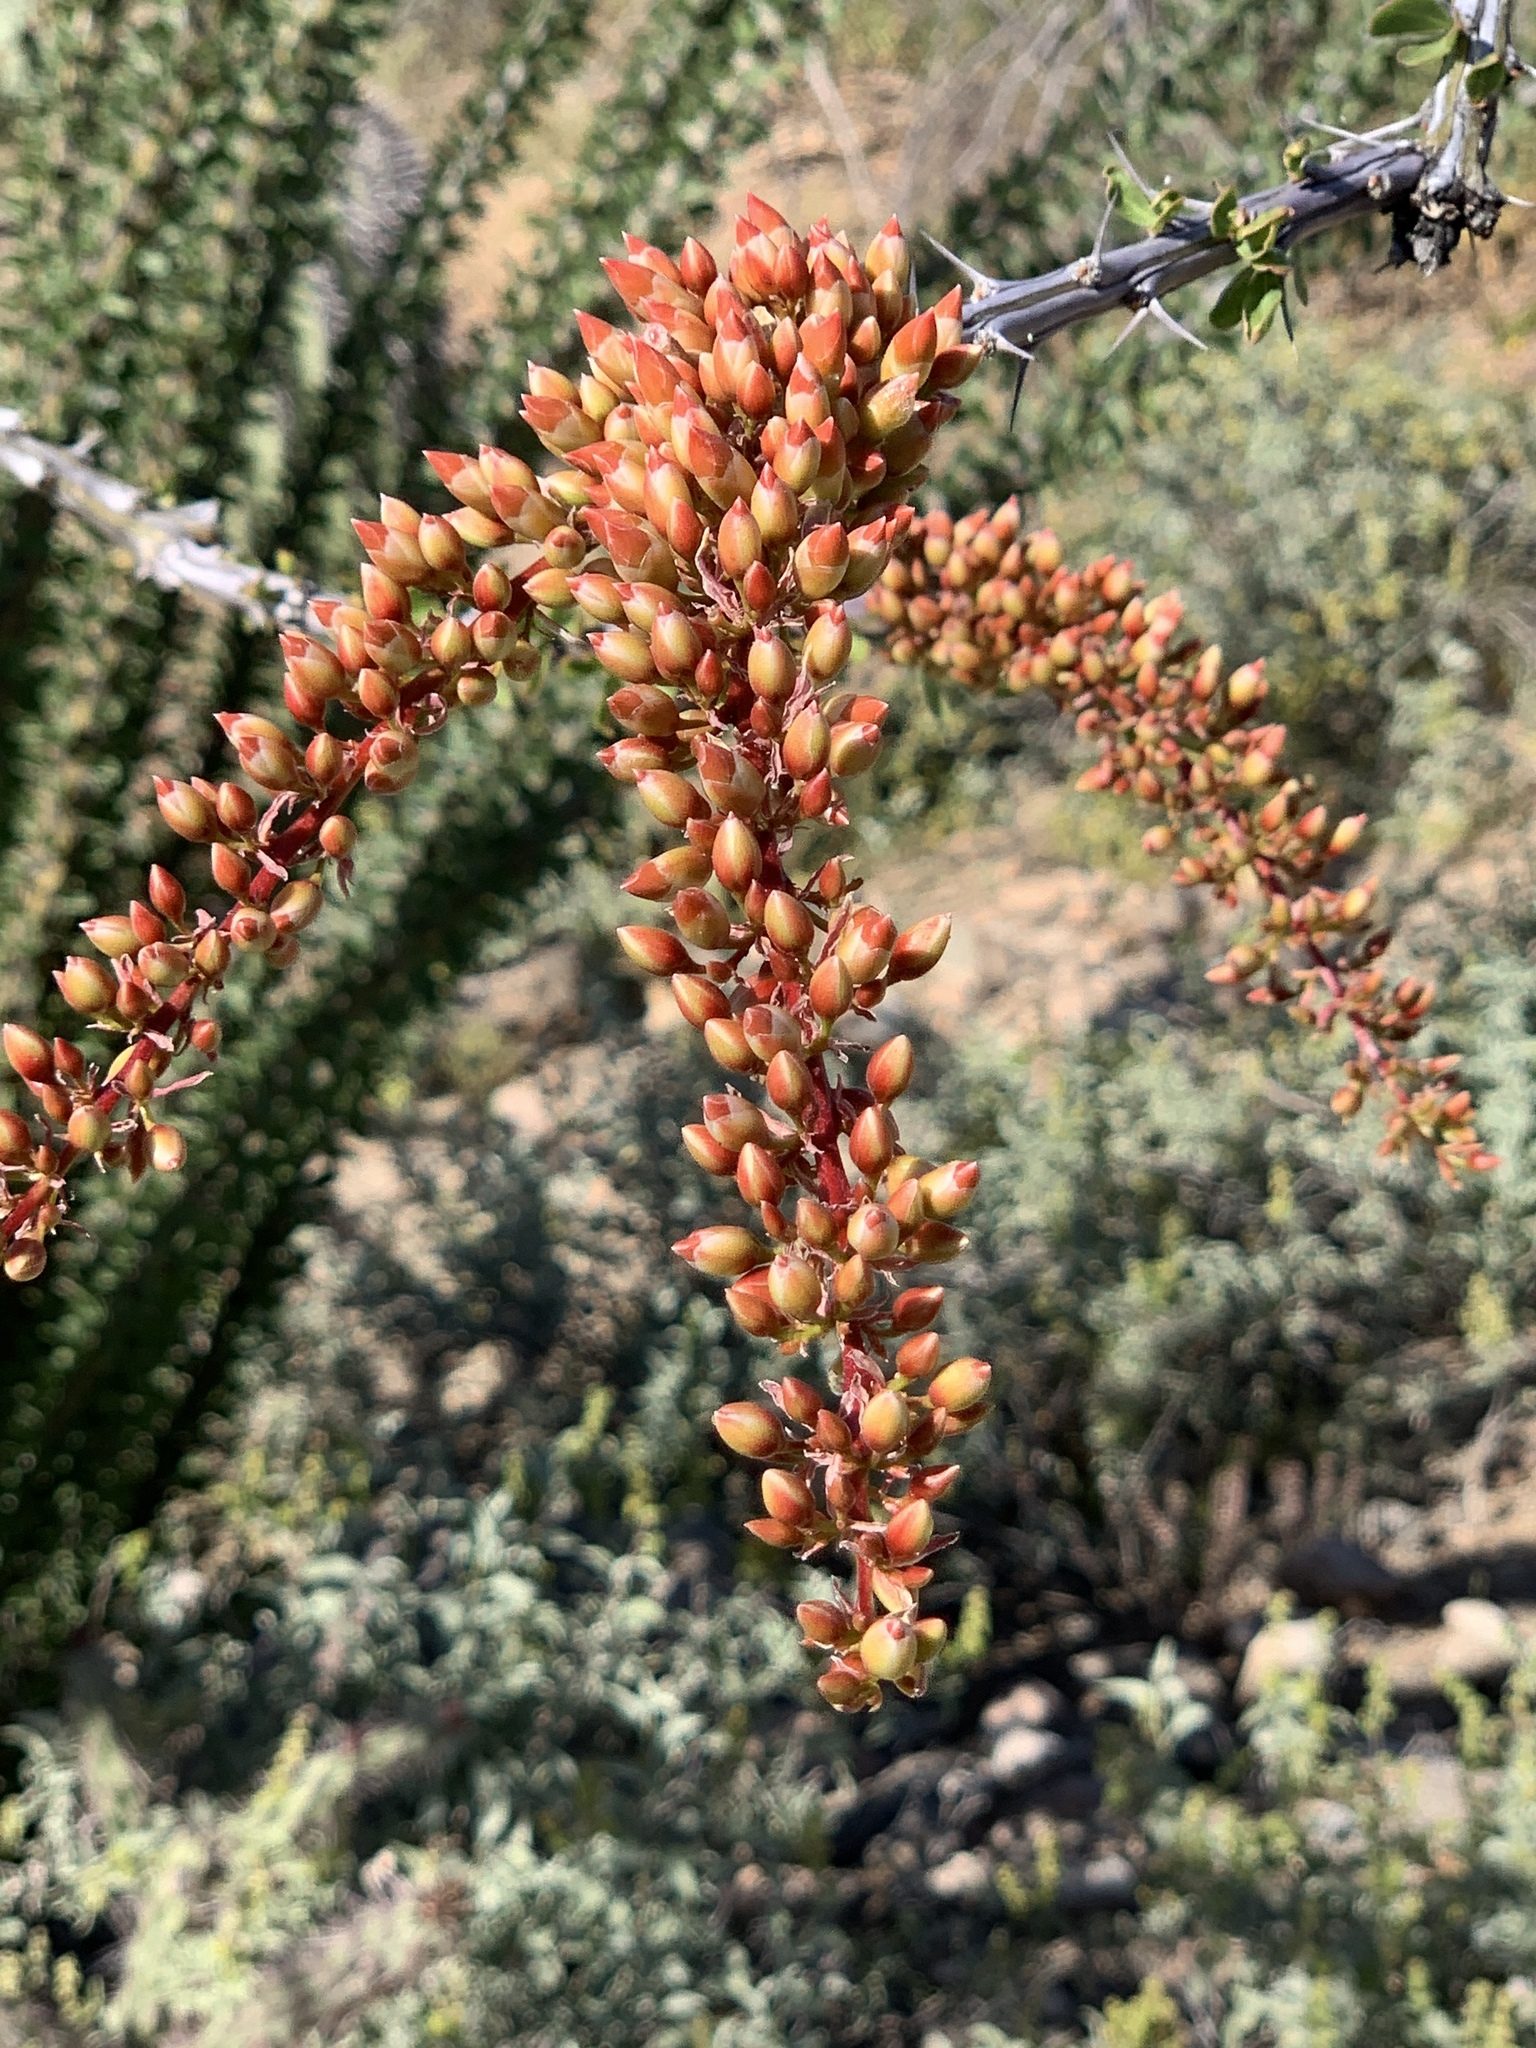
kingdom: Plantae
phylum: Tracheophyta
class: Magnoliopsida
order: Ericales
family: Fouquieriaceae
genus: Fouquieria
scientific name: Fouquieria splendens
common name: Vine-cactus
